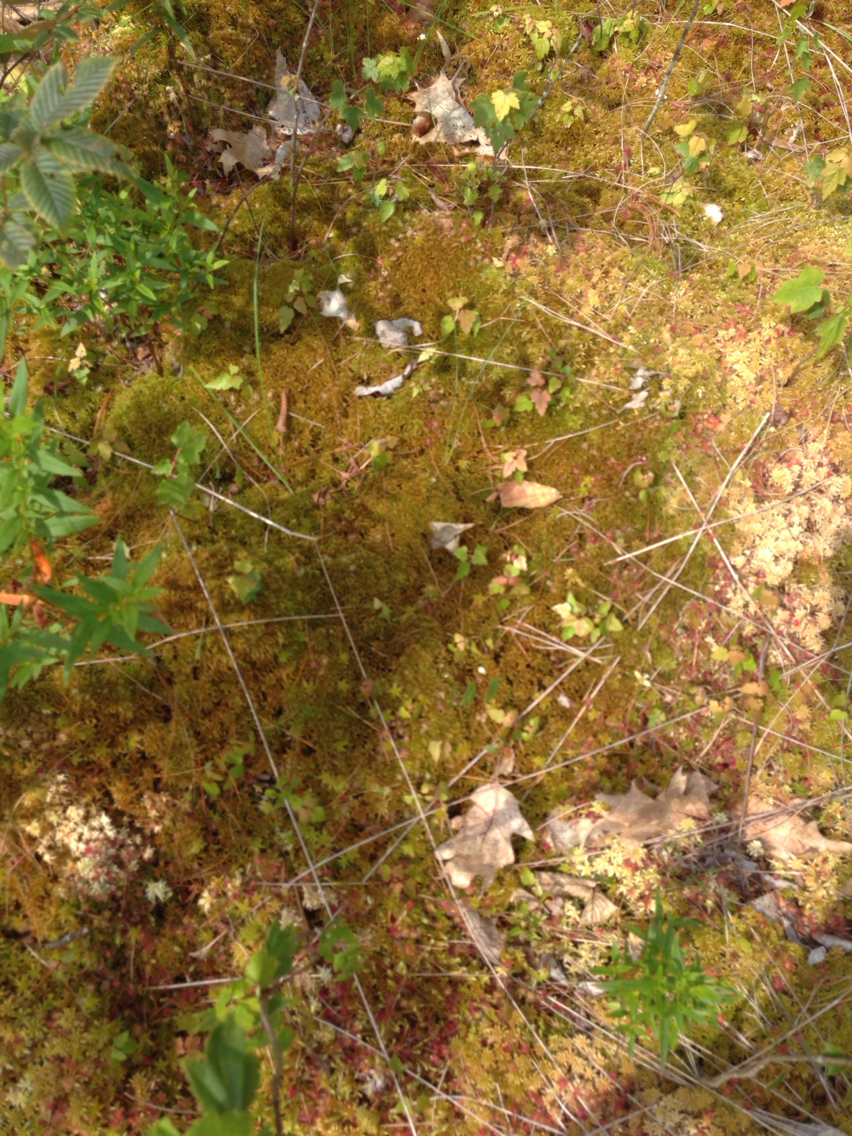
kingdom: Plantae
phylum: Bryophyta
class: Sphagnopsida
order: Sphagnales
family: Sphagnaceae
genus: Sphagnum
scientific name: Sphagnum fuscum
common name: Brown peat moss
